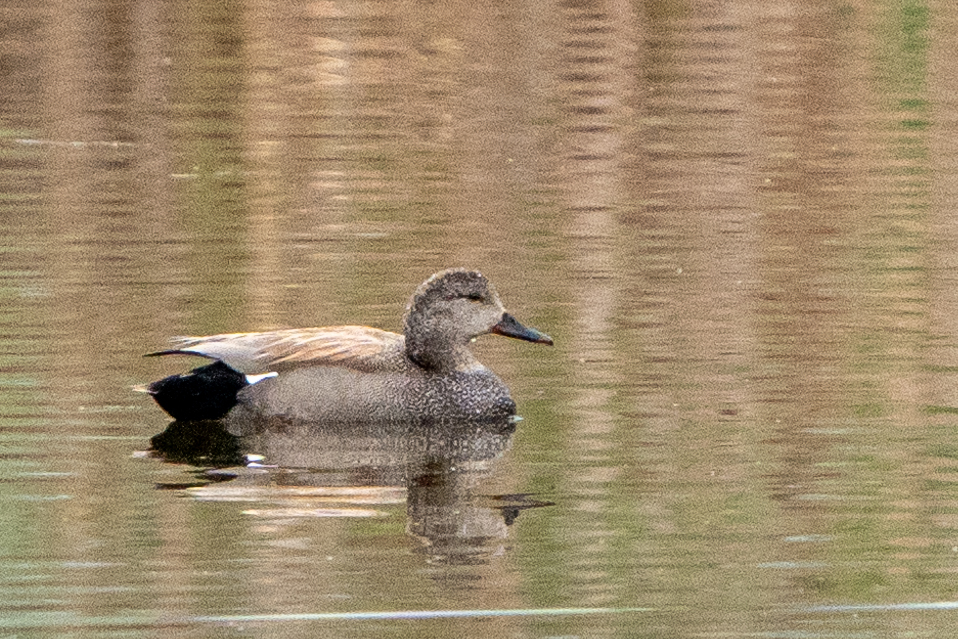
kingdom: Animalia
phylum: Chordata
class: Aves
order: Anseriformes
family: Anatidae
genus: Mareca
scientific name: Mareca strepera
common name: Gadwall
